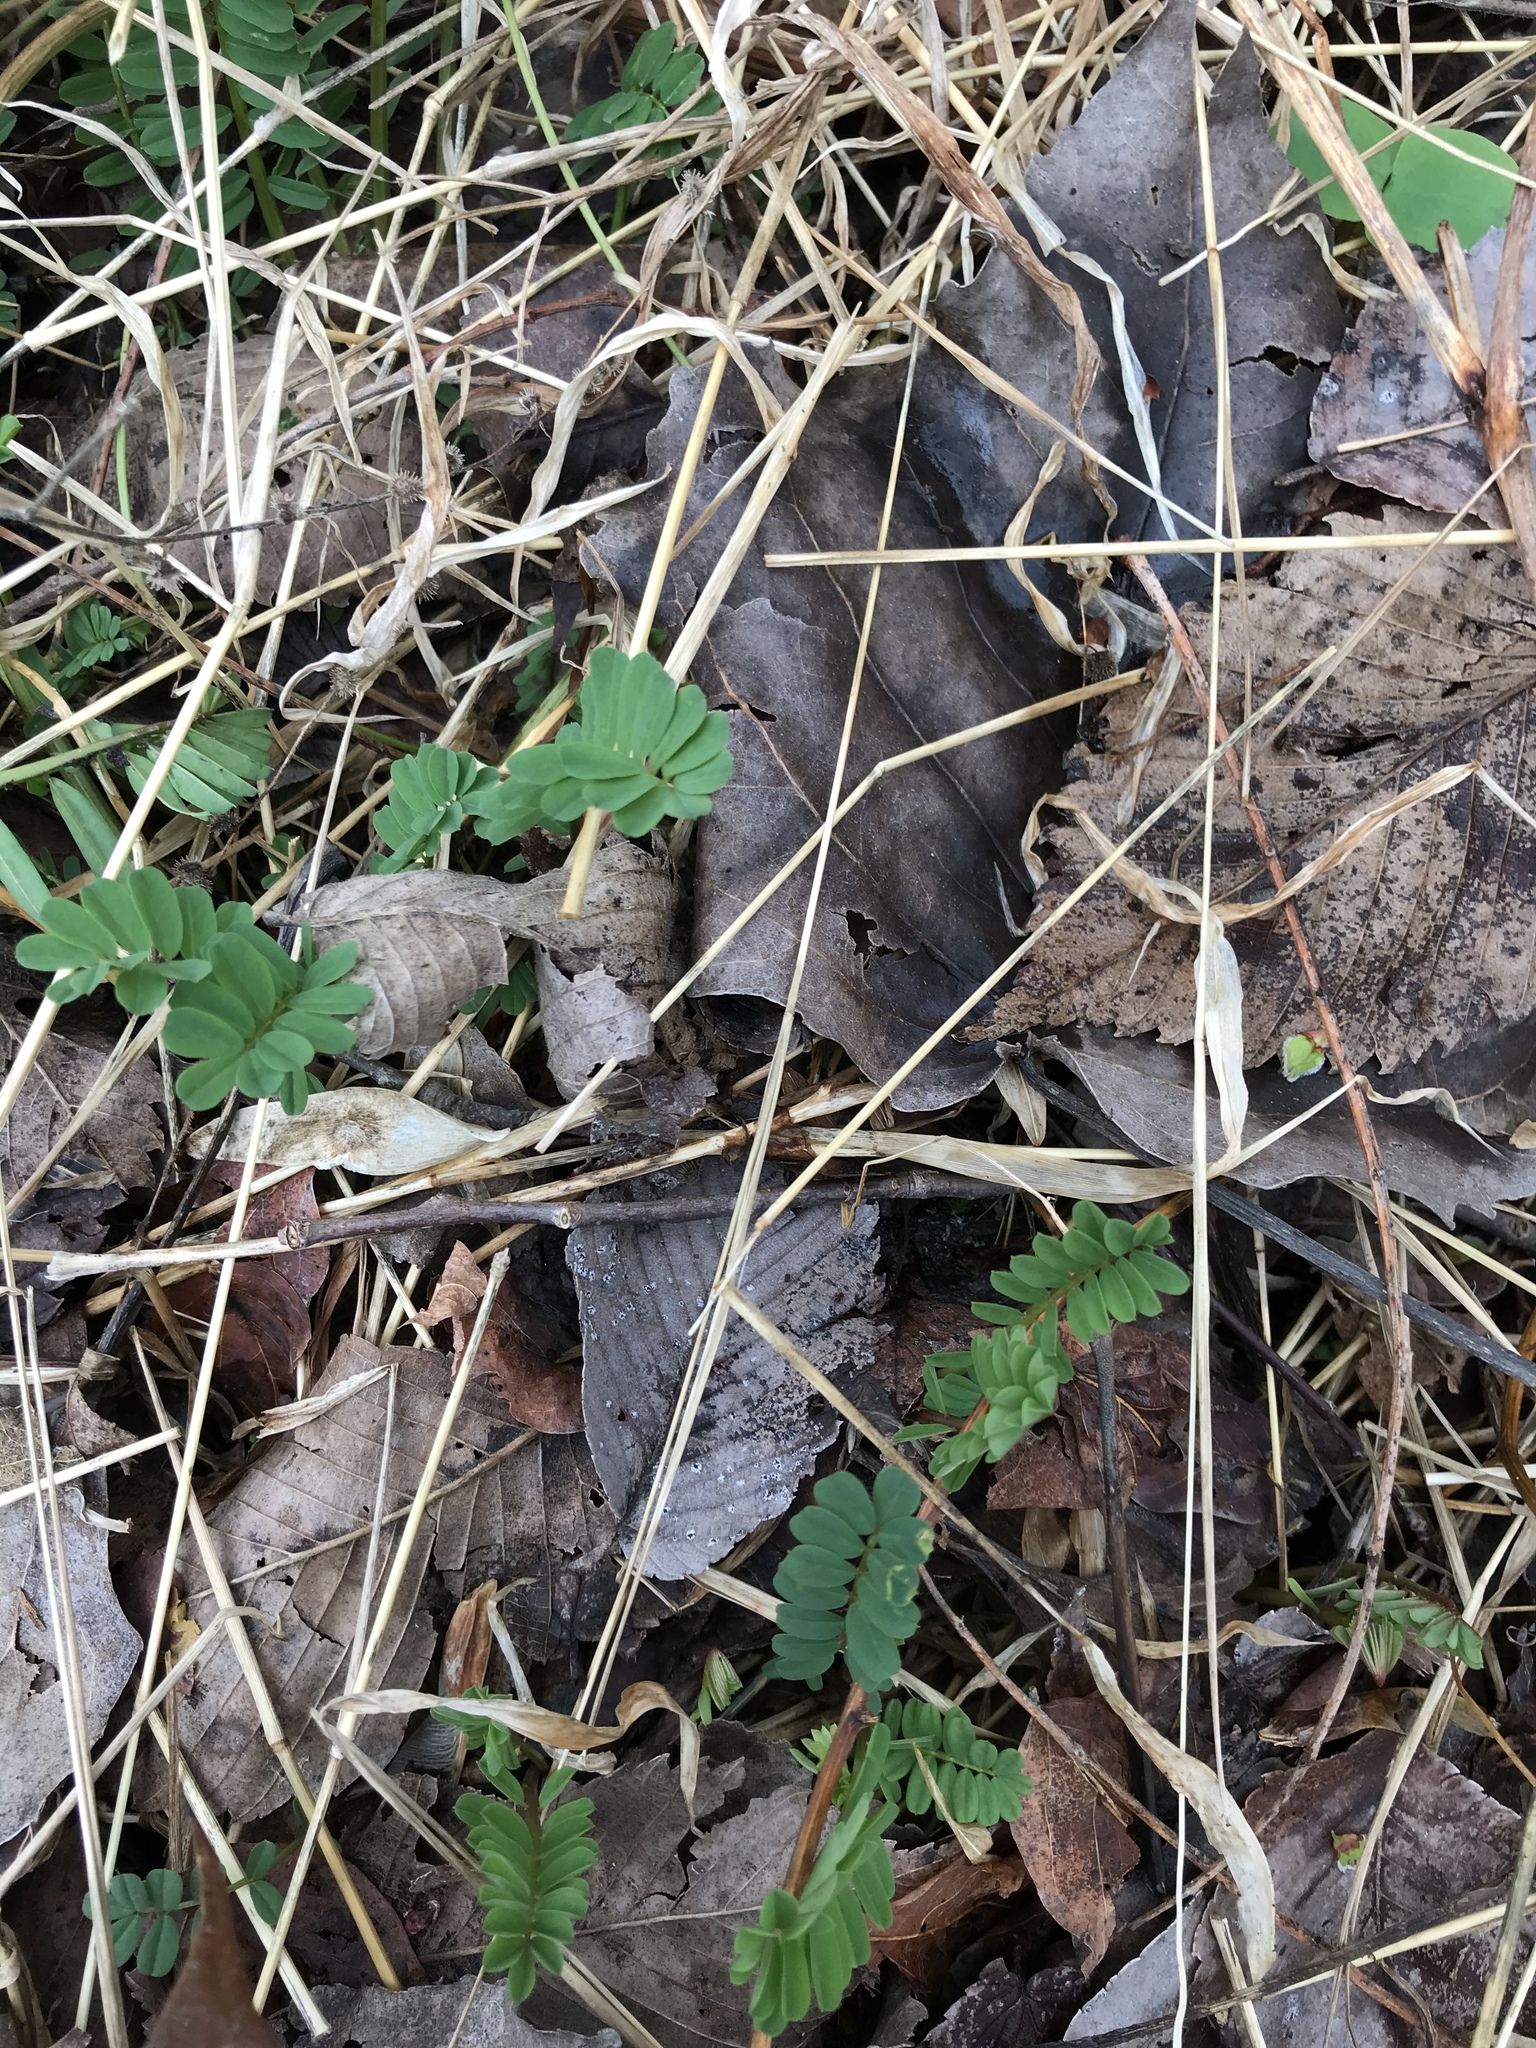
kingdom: Plantae
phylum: Tracheophyta
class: Magnoliopsida
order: Fabales
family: Fabaceae
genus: Coronilla
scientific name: Coronilla varia
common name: Crownvetch
